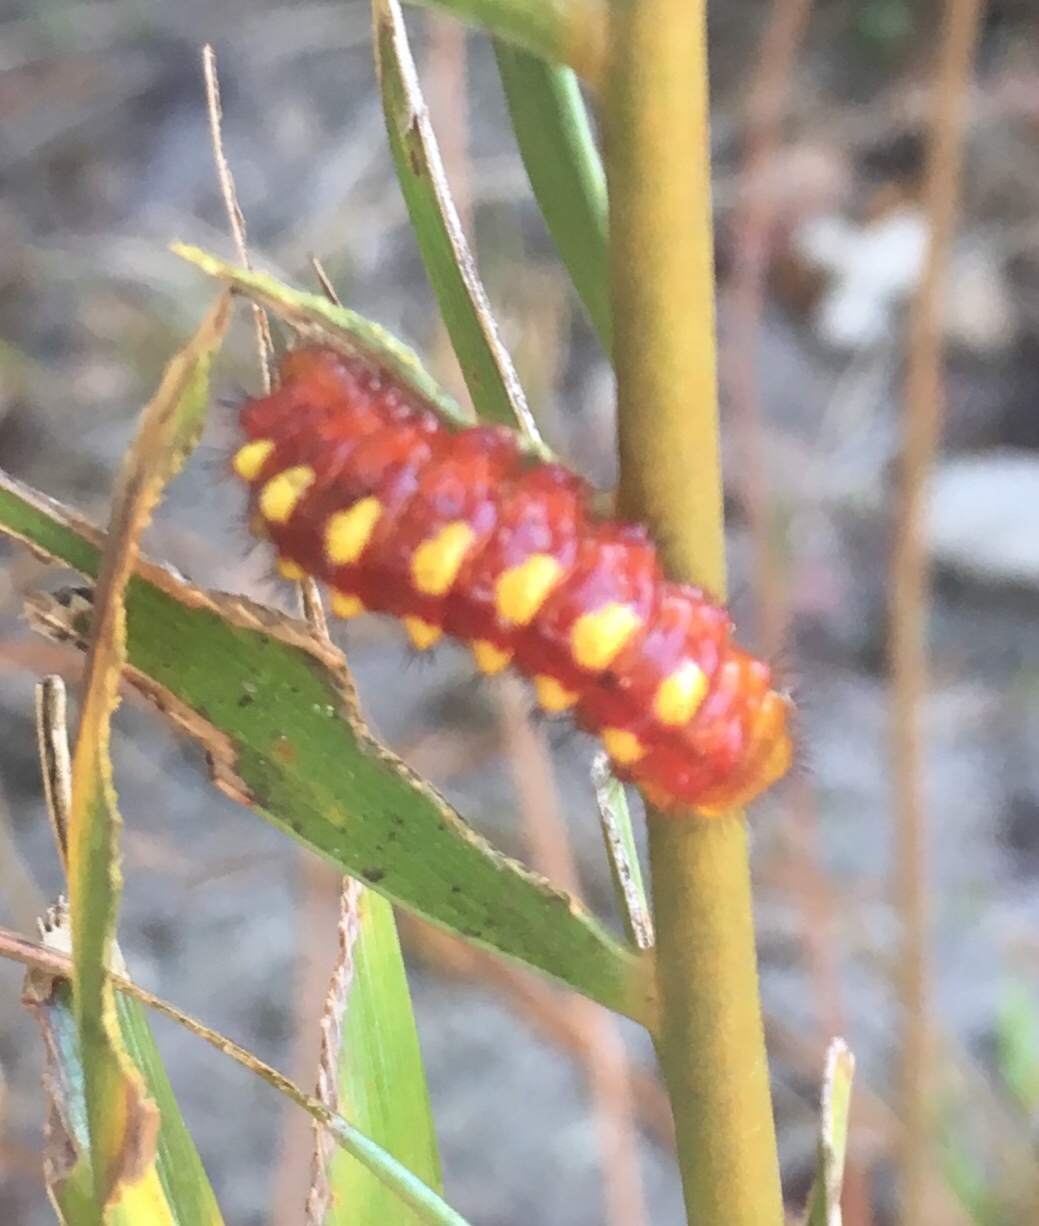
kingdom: Animalia
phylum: Arthropoda
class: Insecta
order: Lepidoptera
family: Lycaenidae
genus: Eumaeus
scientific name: Eumaeus atala
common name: Atala
